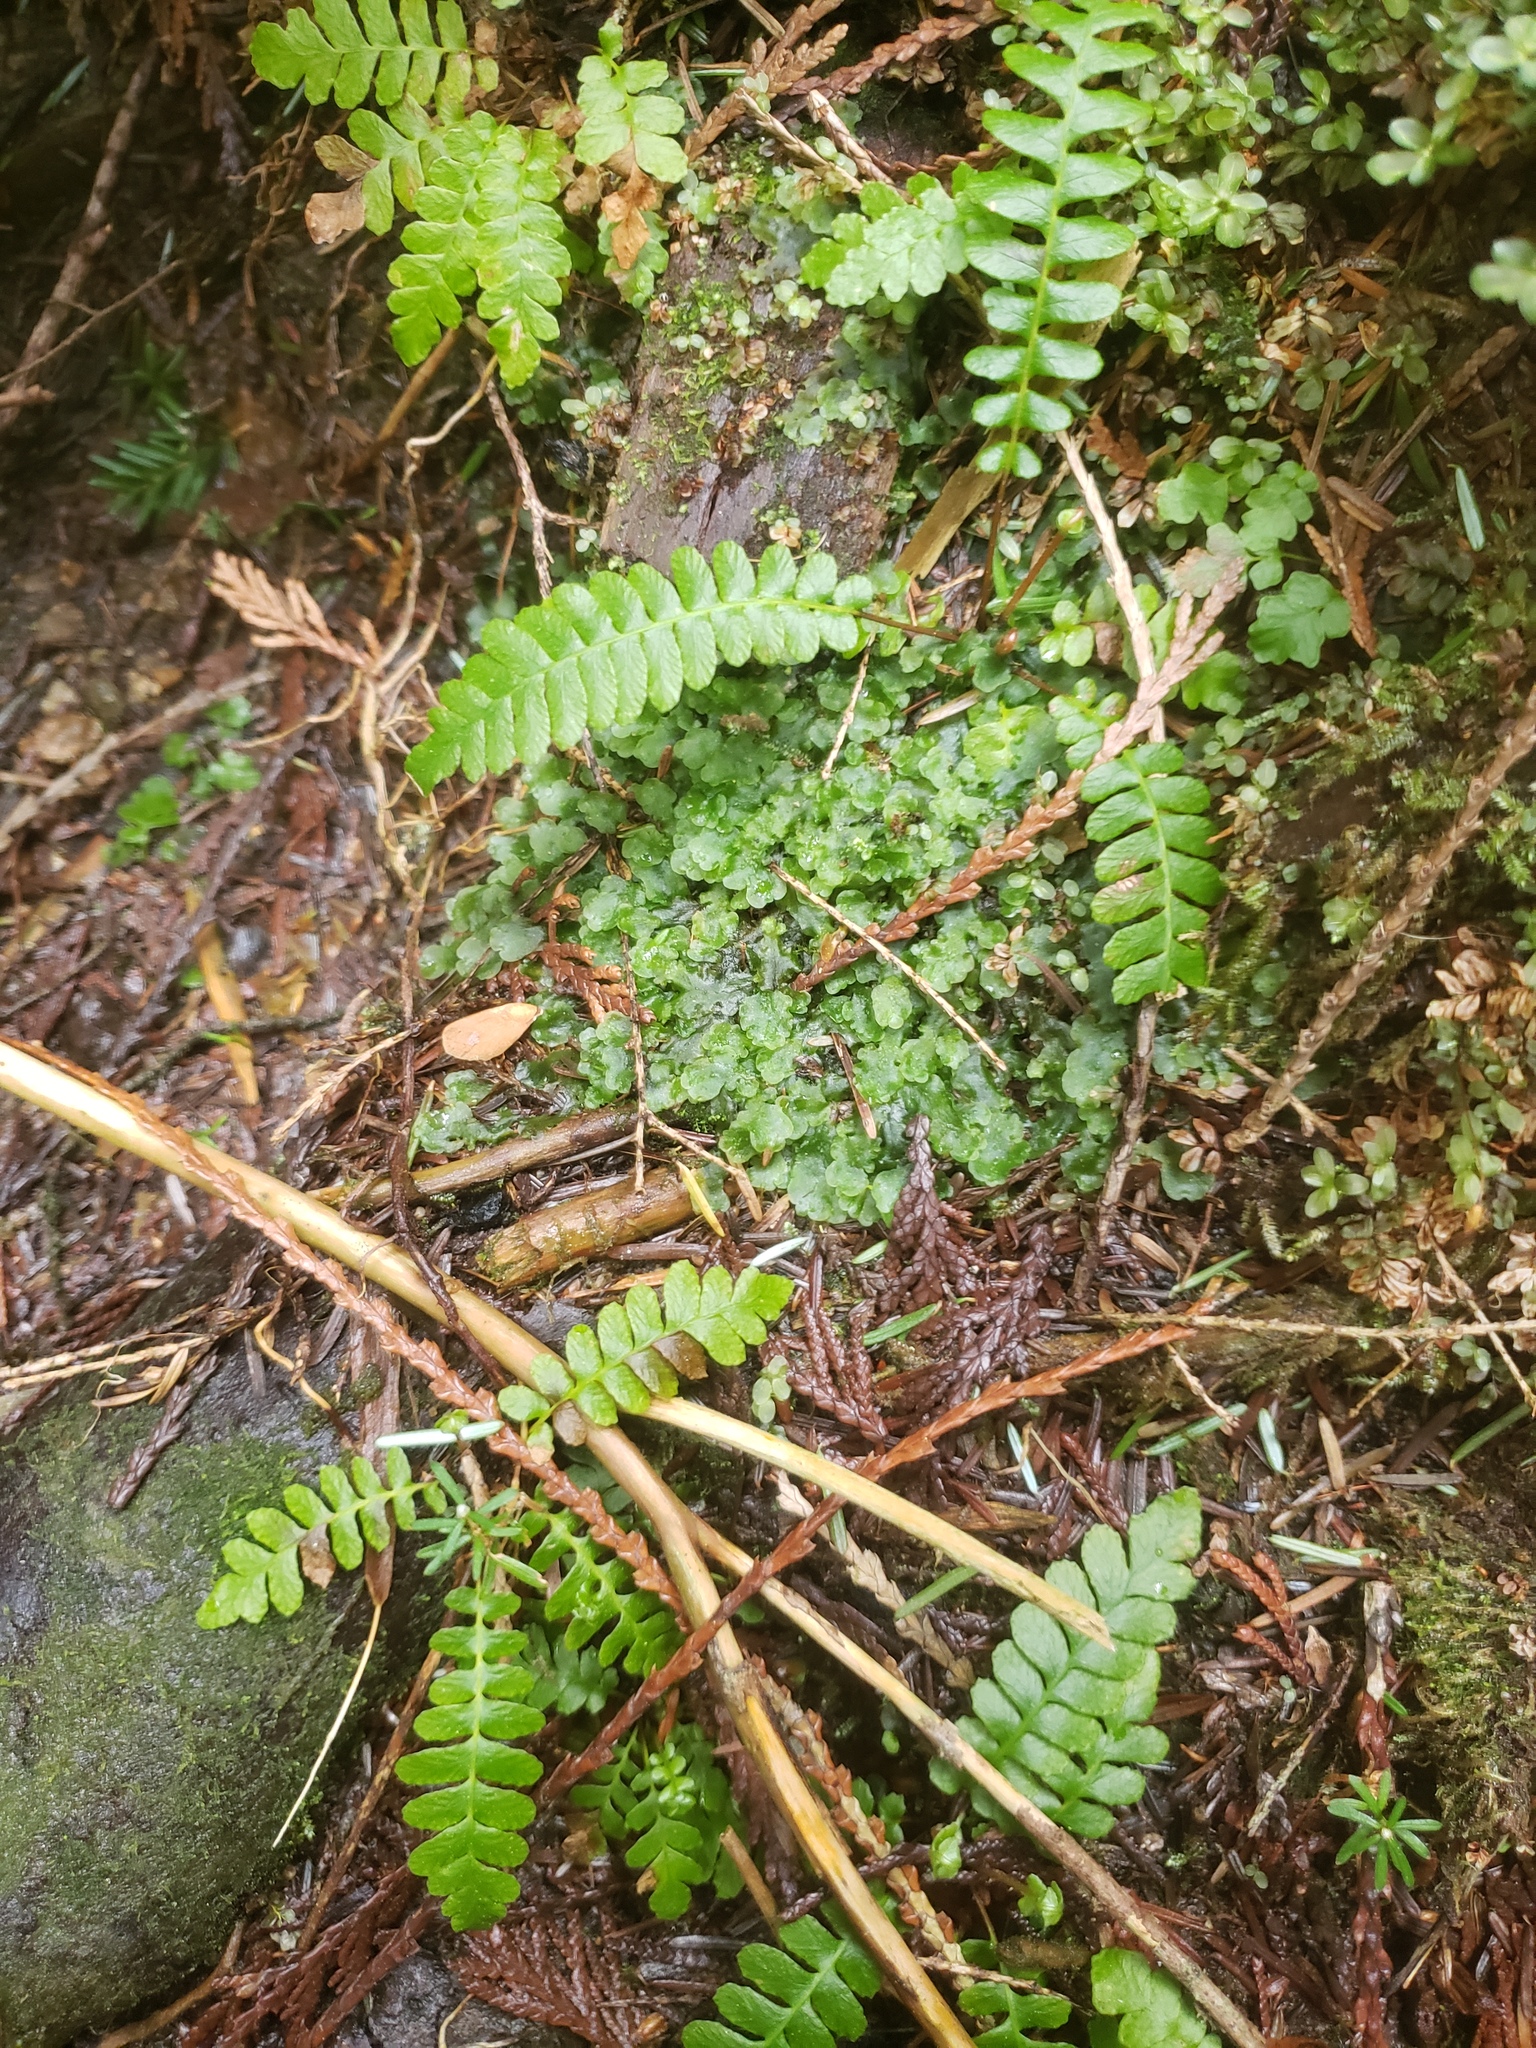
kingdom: Plantae
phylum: Tracheophyta
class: Polypodiopsida
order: Polypodiales
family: Blechnaceae
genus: Struthiopteris
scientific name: Struthiopteris spicant
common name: Deer fern
